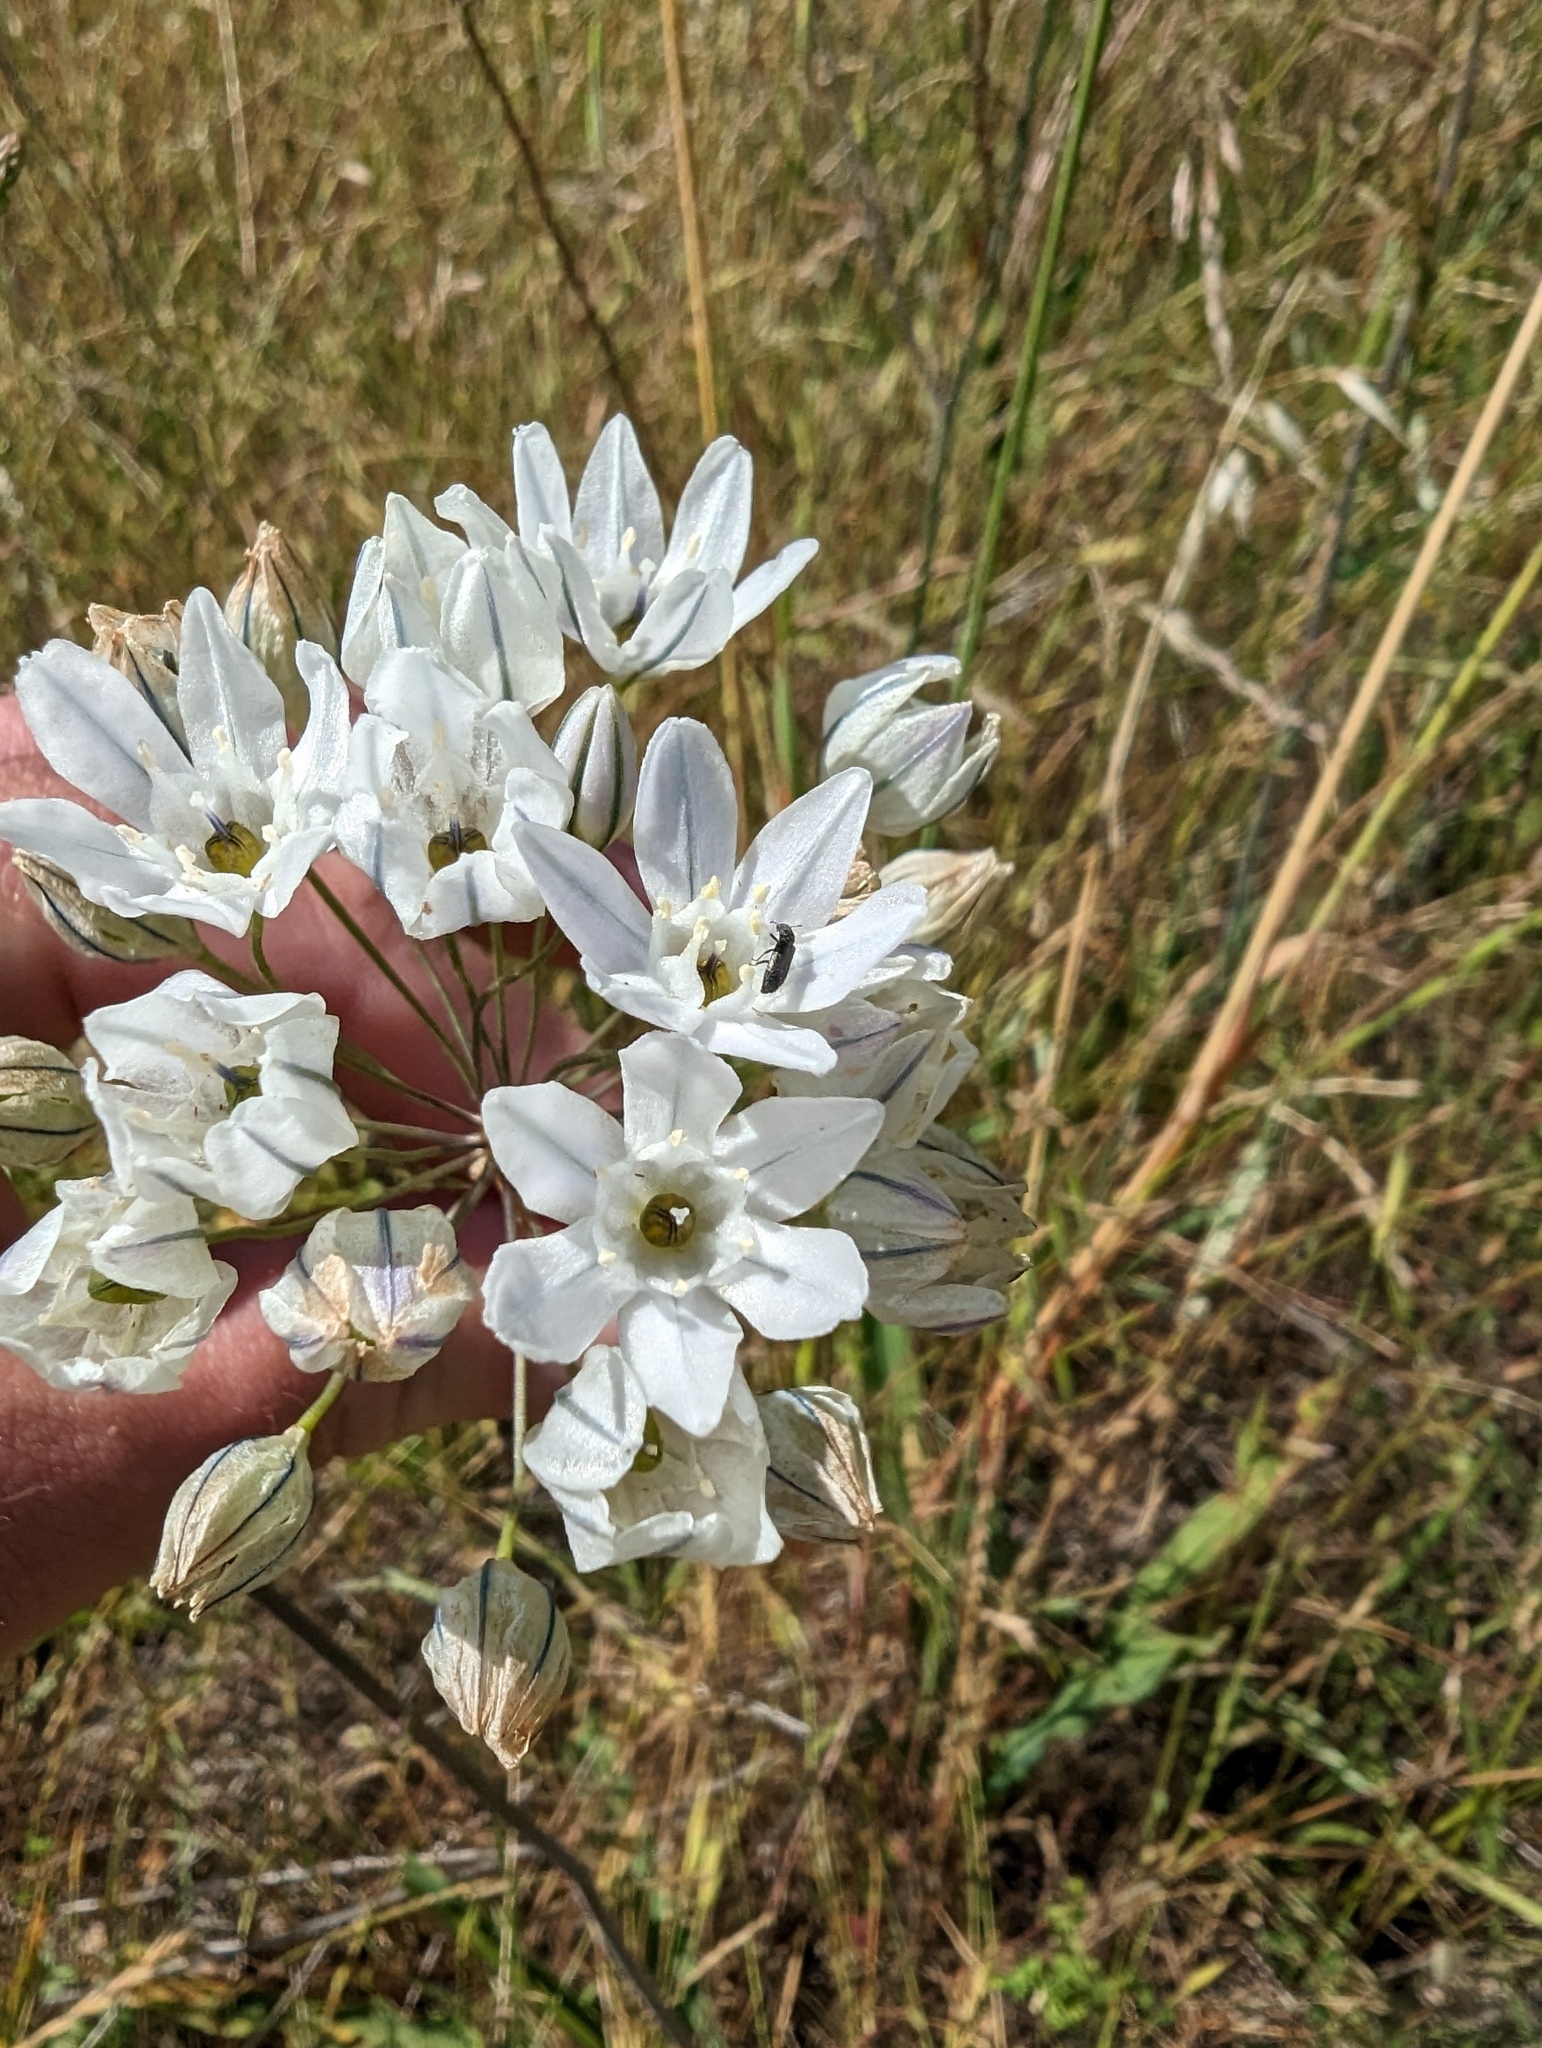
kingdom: Plantae
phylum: Tracheophyta
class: Liliopsida
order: Asparagales
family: Asparagaceae
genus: Triteleia
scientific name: Triteleia hyacinthina
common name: White brodiaea
